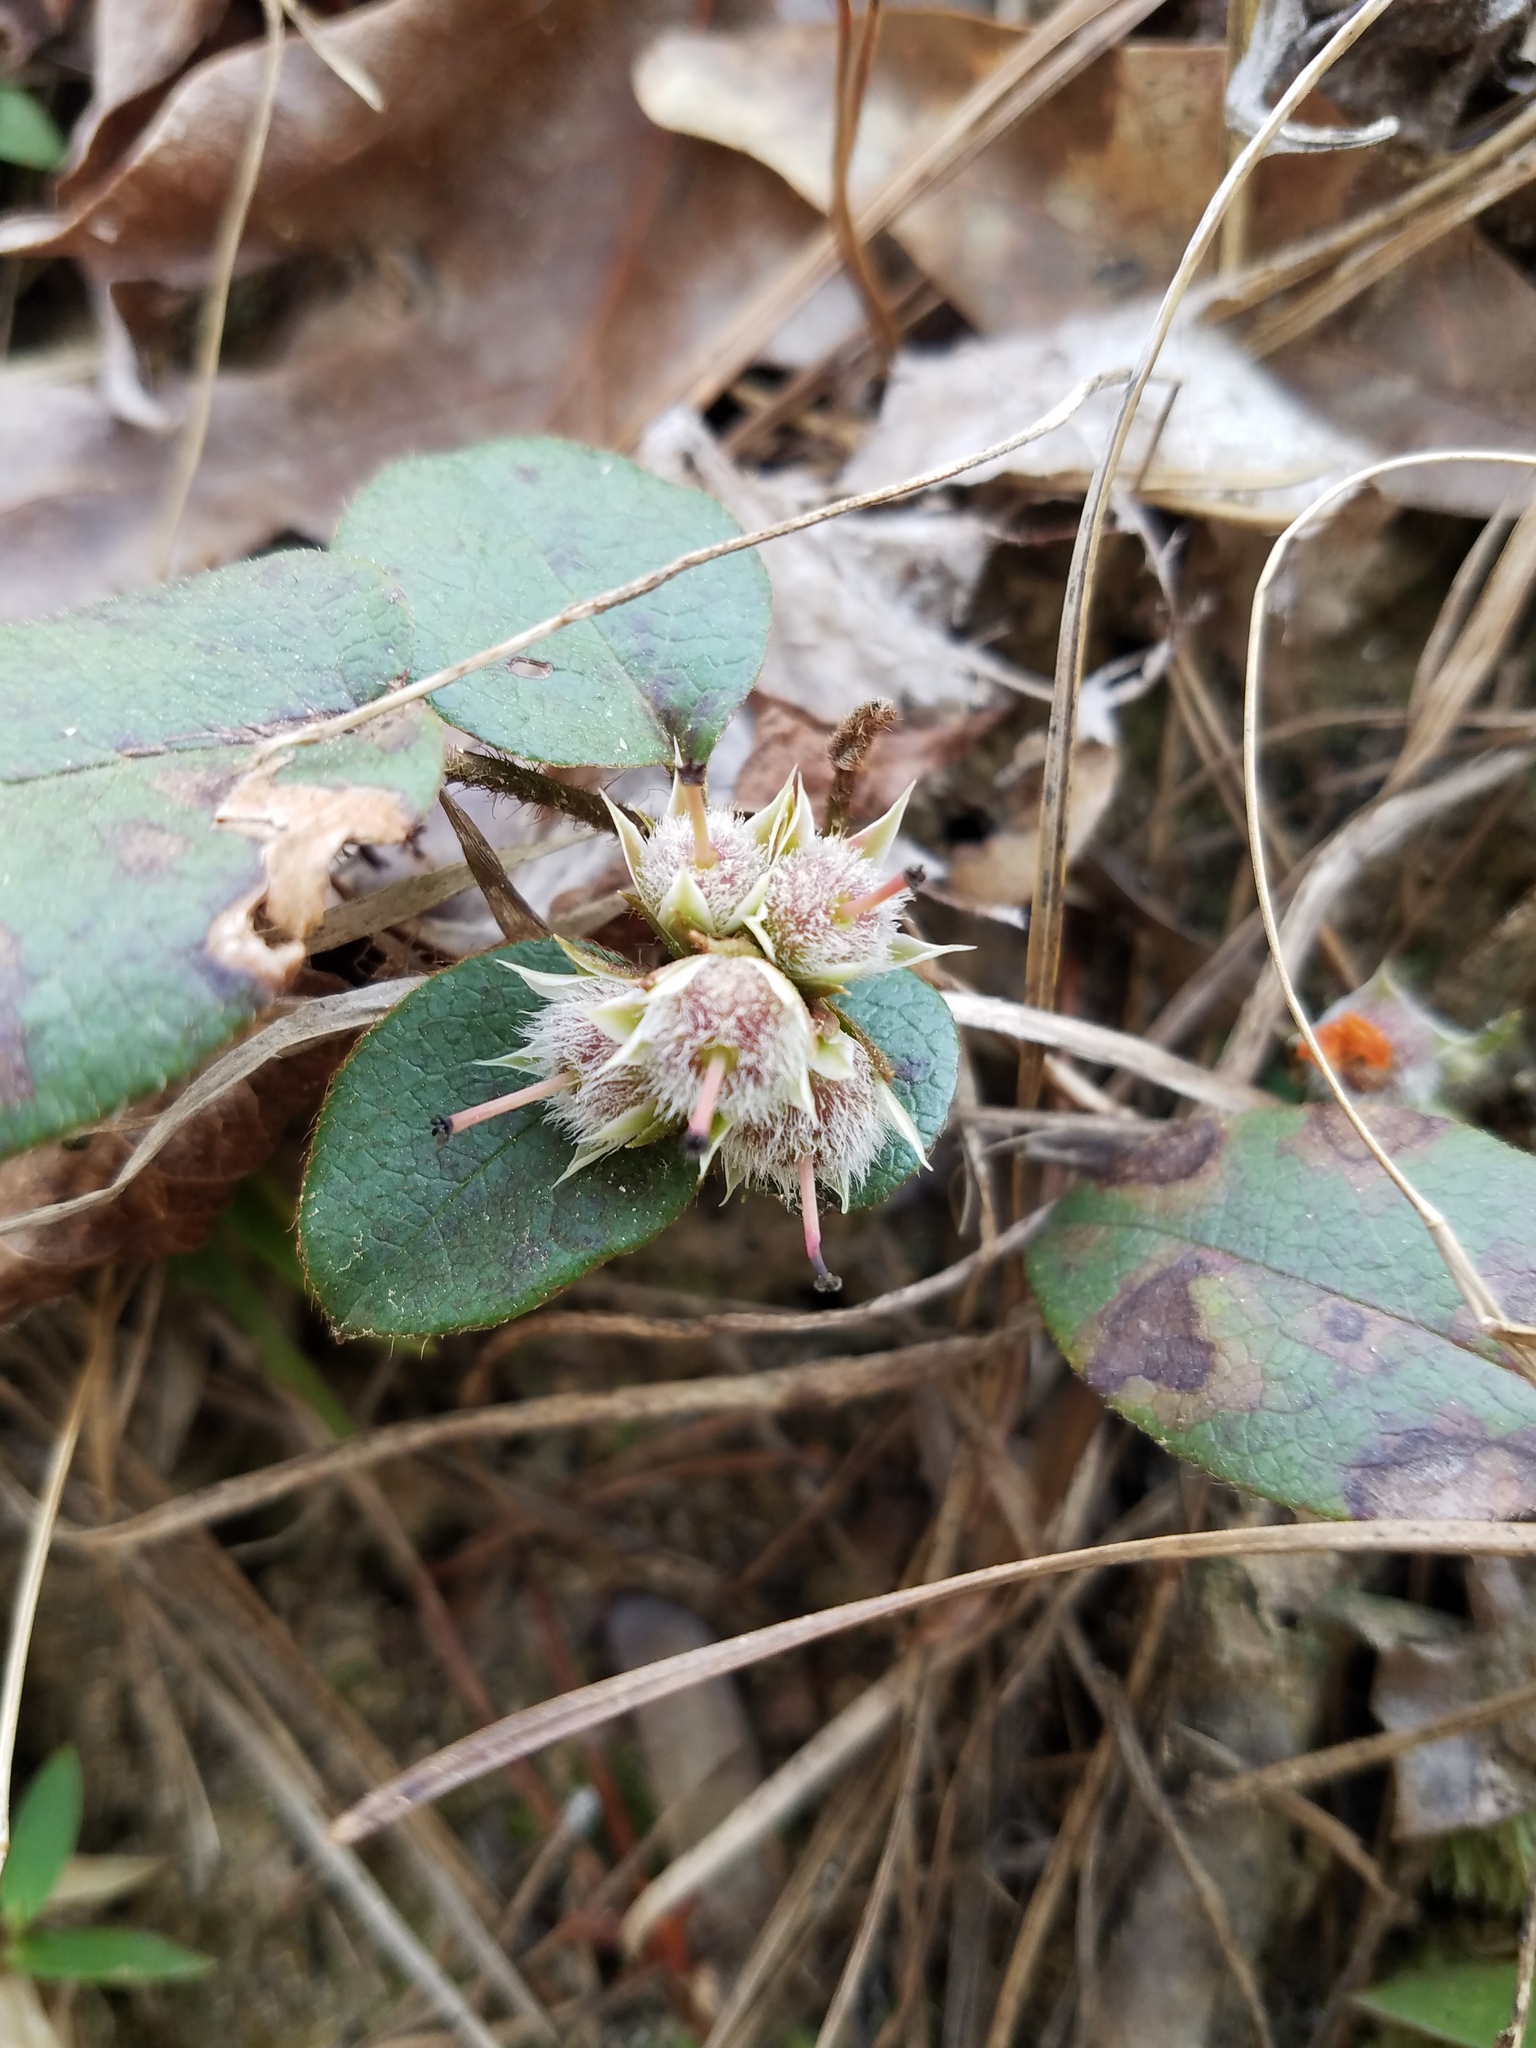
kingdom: Plantae
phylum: Tracheophyta
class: Magnoliopsida
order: Ericales
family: Ericaceae
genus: Epigaea
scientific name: Epigaea repens
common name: Gravelroot
